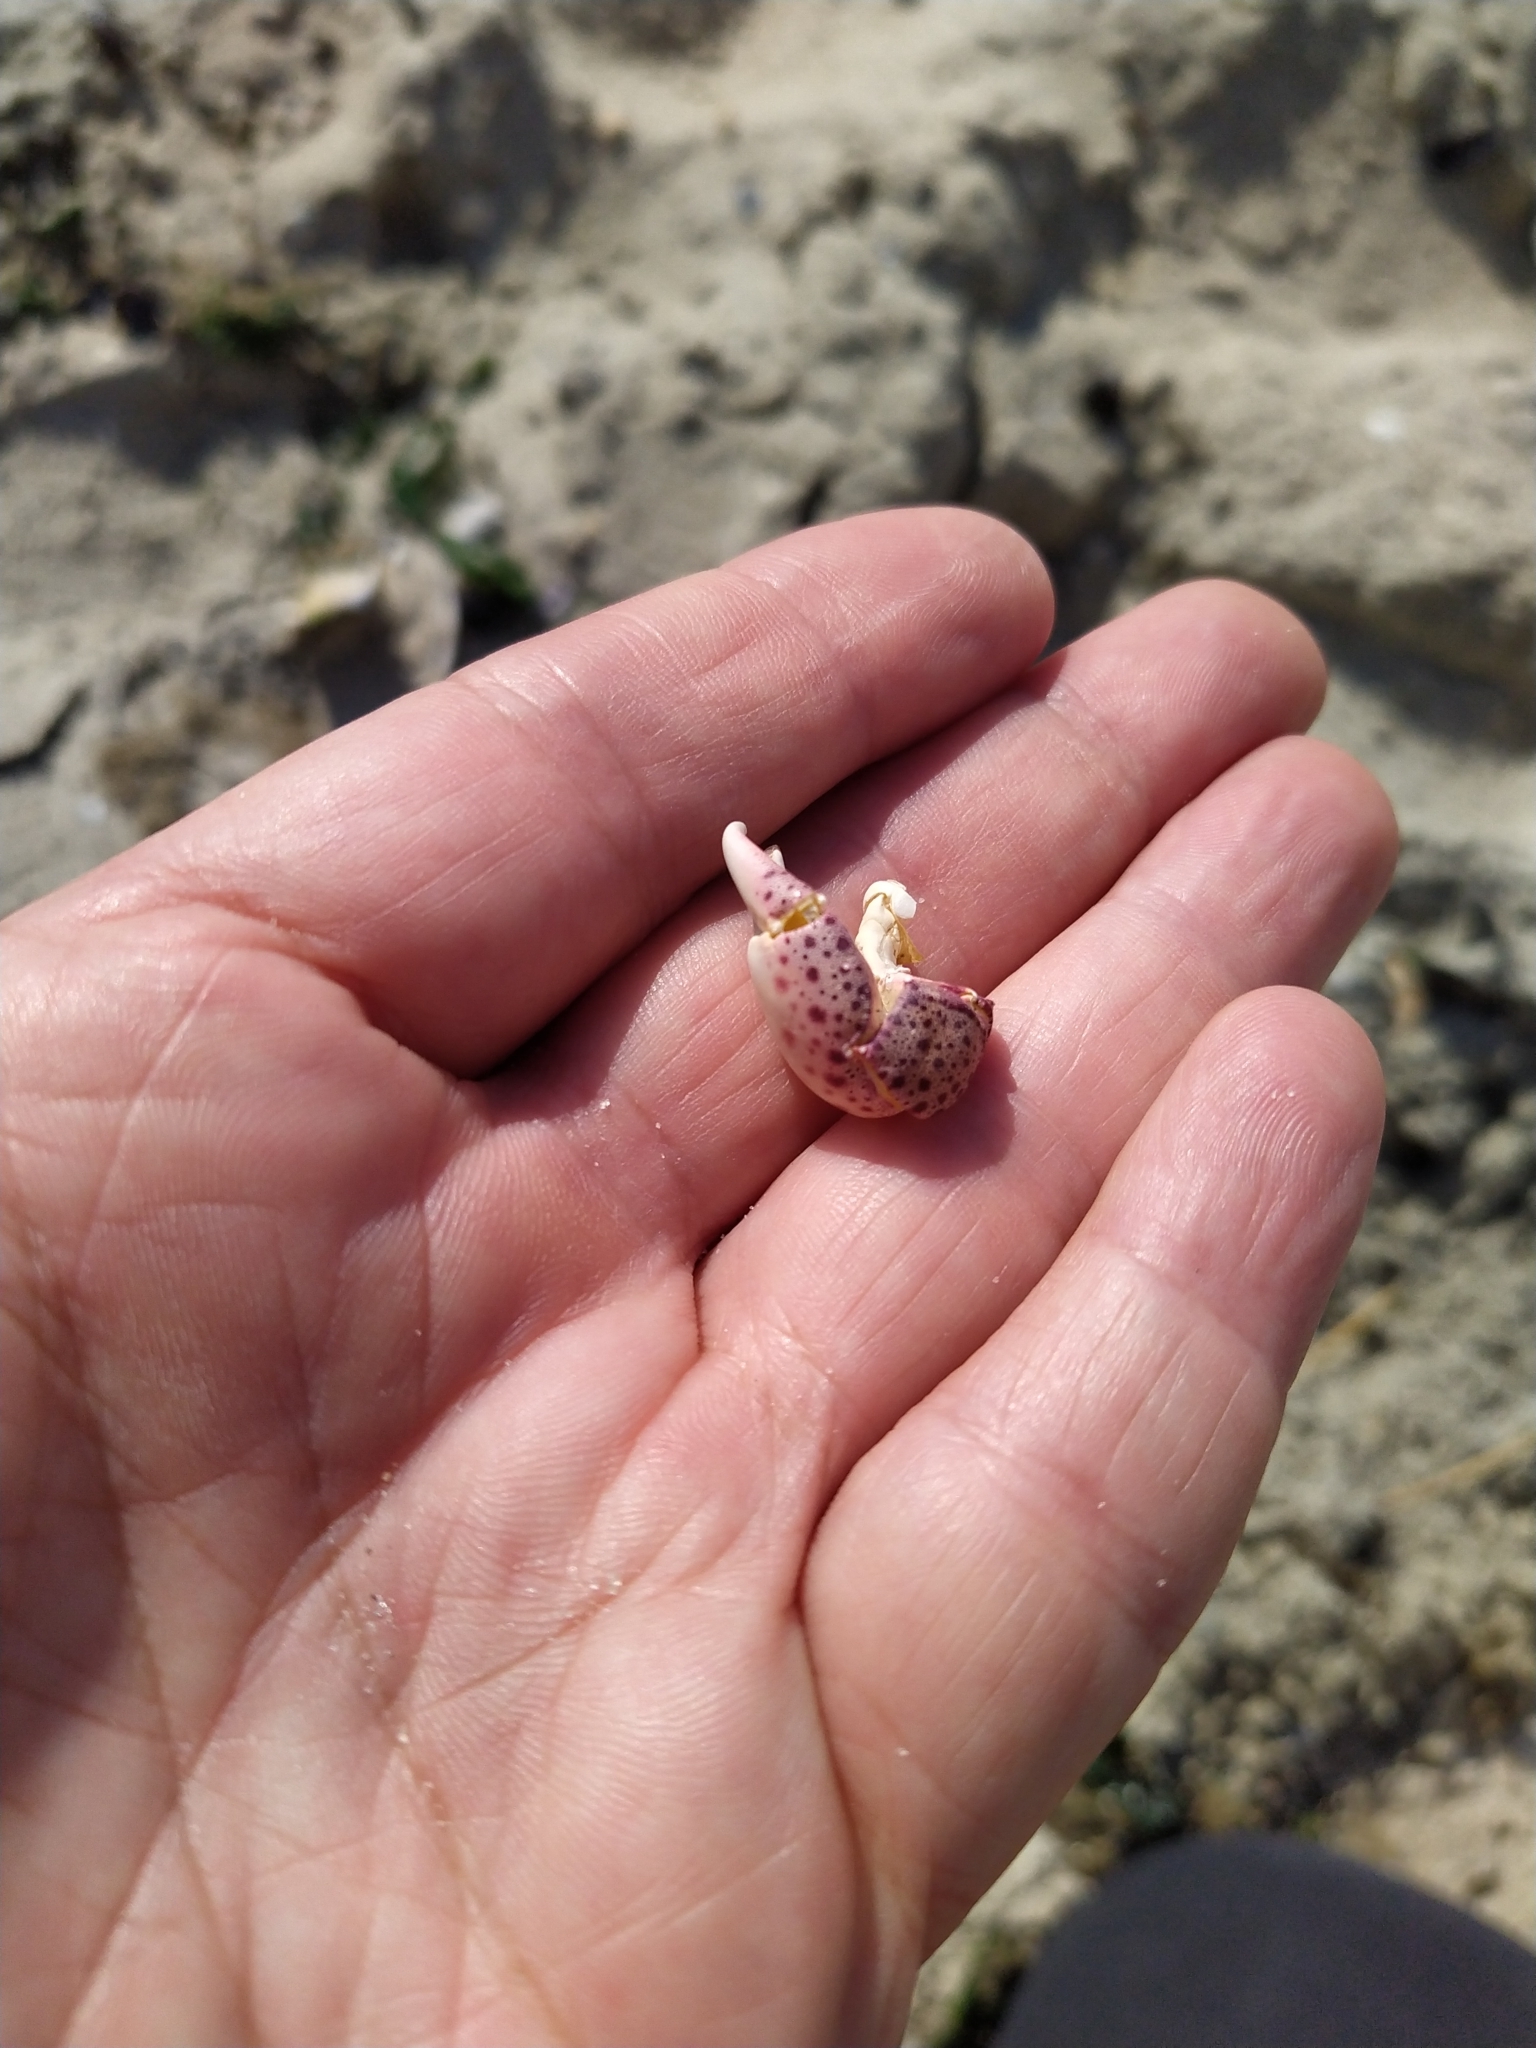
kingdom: Animalia
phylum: Arthropoda
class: Malacostraca
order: Decapoda
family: Varunidae
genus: Hemigrapsus
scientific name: Hemigrapsus sanguineus
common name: Asian shore crab
